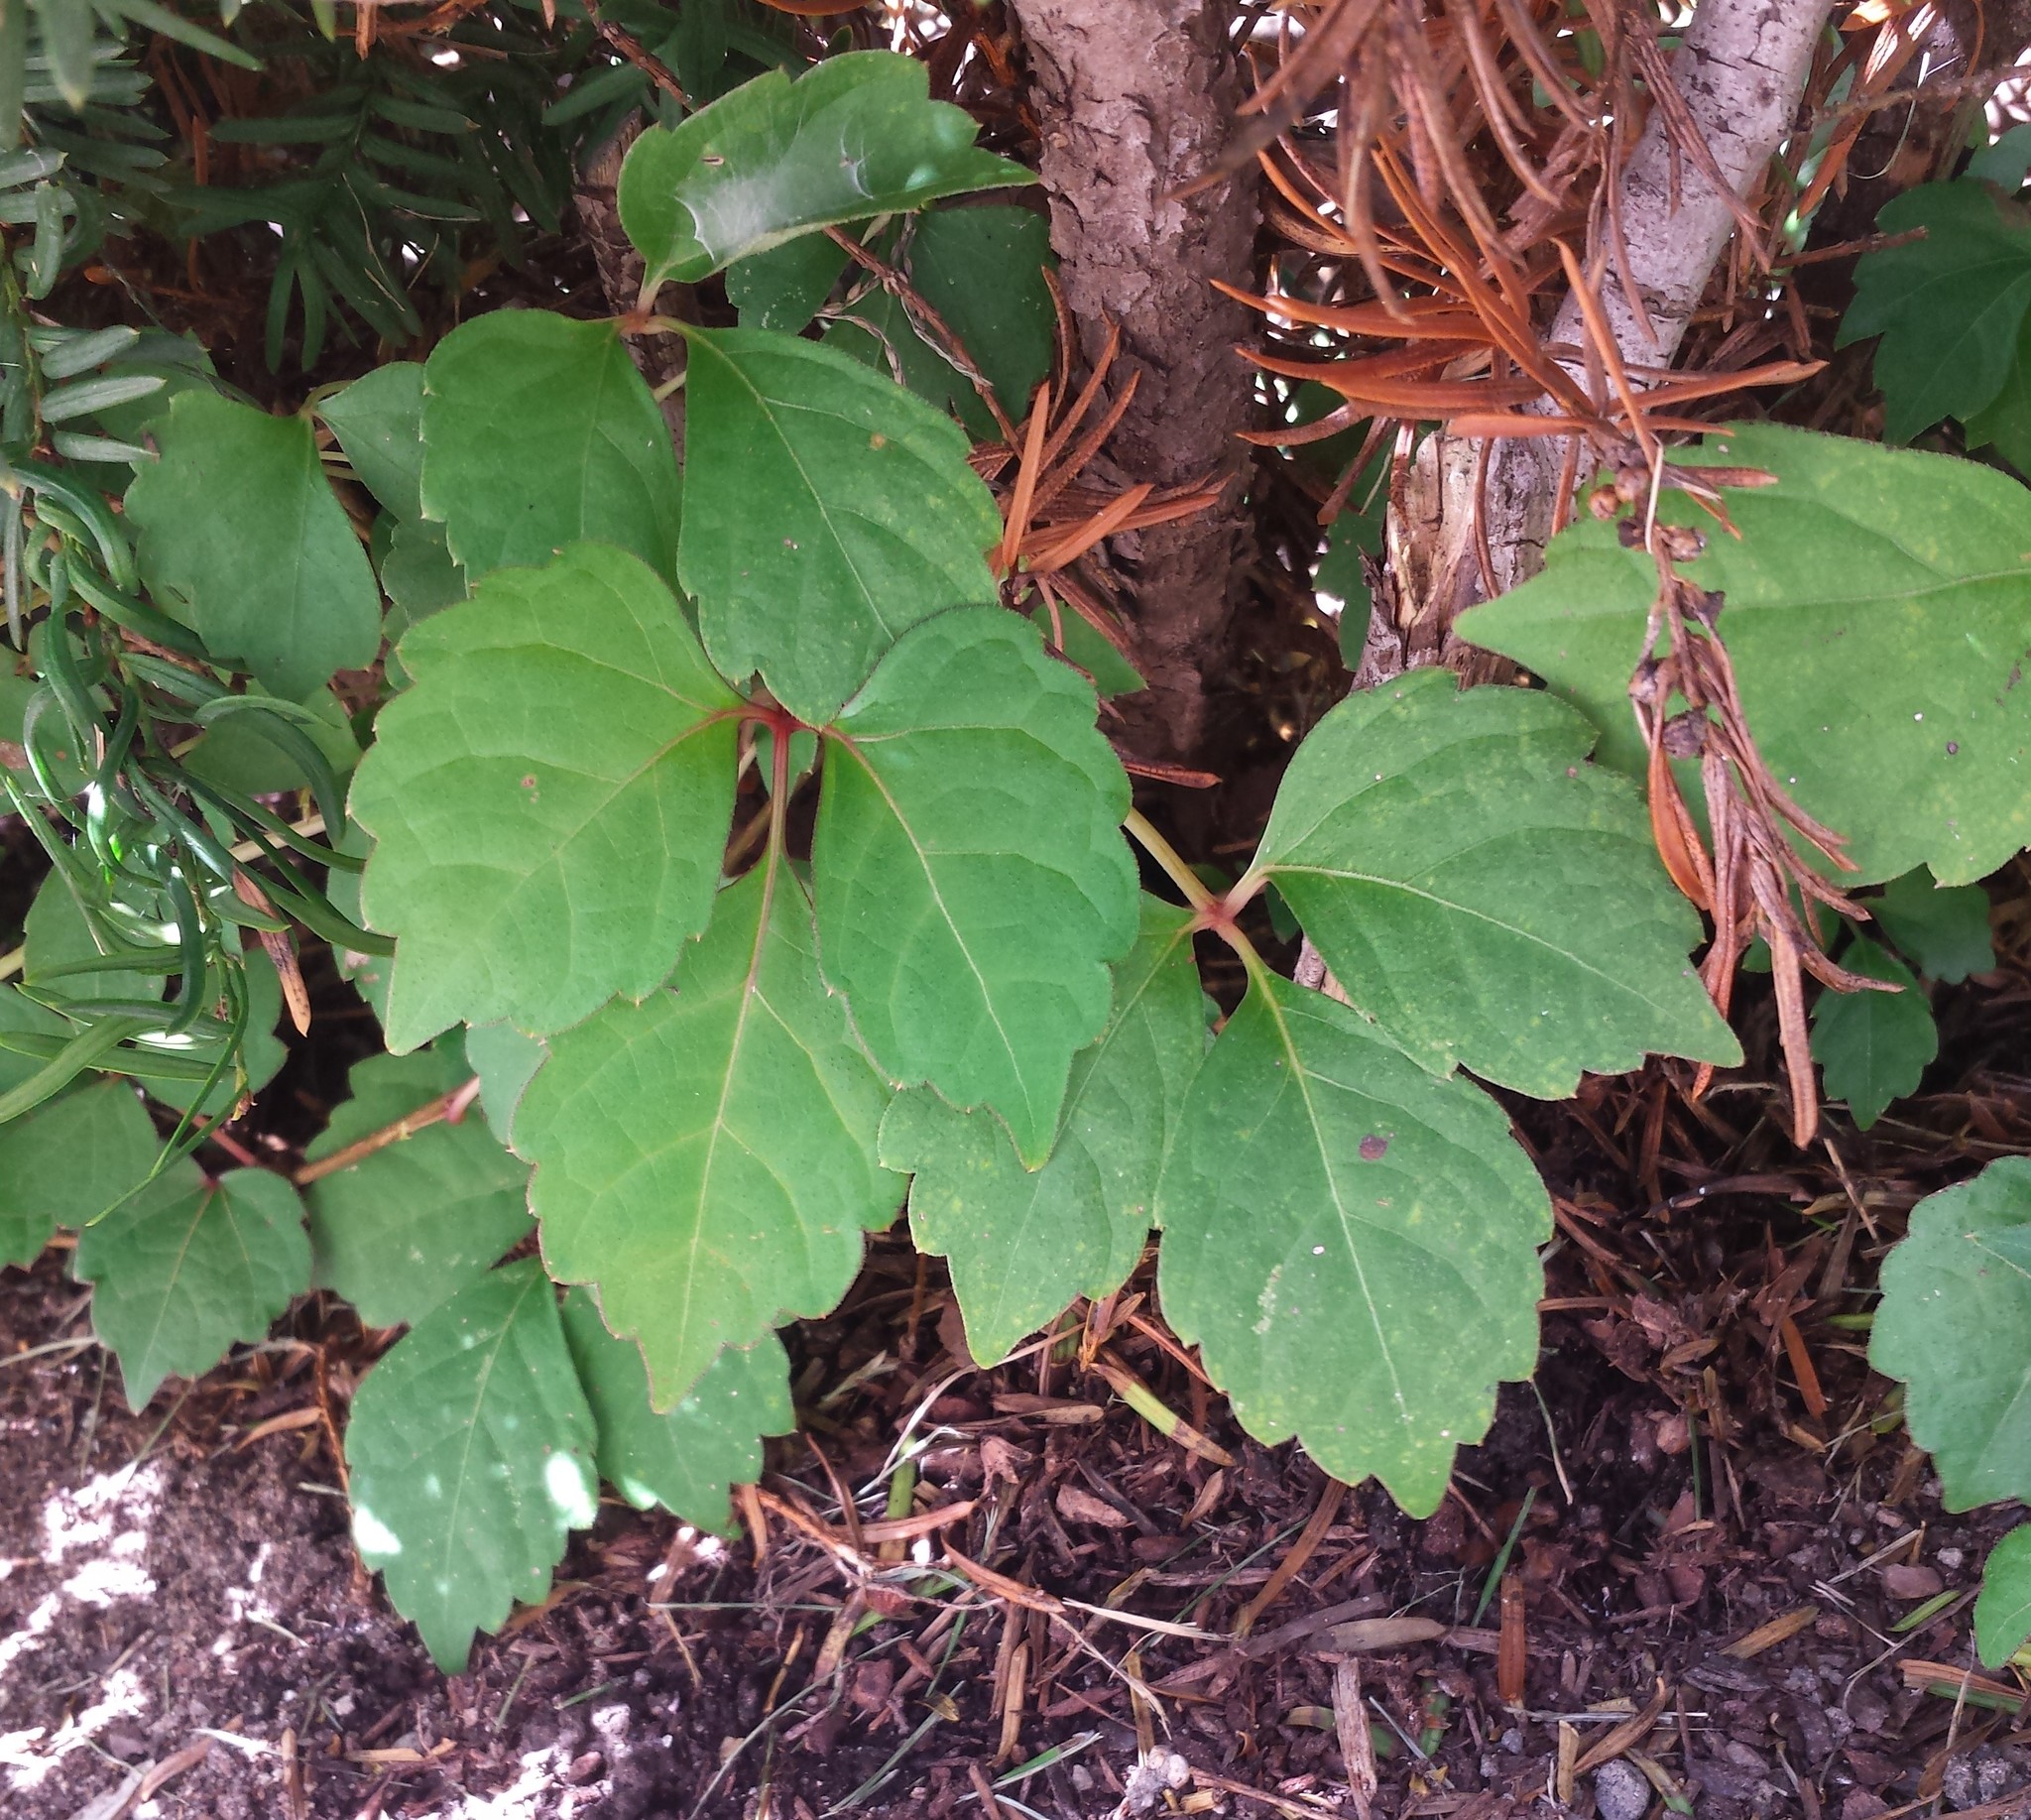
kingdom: Plantae
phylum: Tracheophyta
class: Magnoliopsida
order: Vitales
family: Vitaceae
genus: Parthenocissus
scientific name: Parthenocissus tricuspidata
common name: Boston ivy
